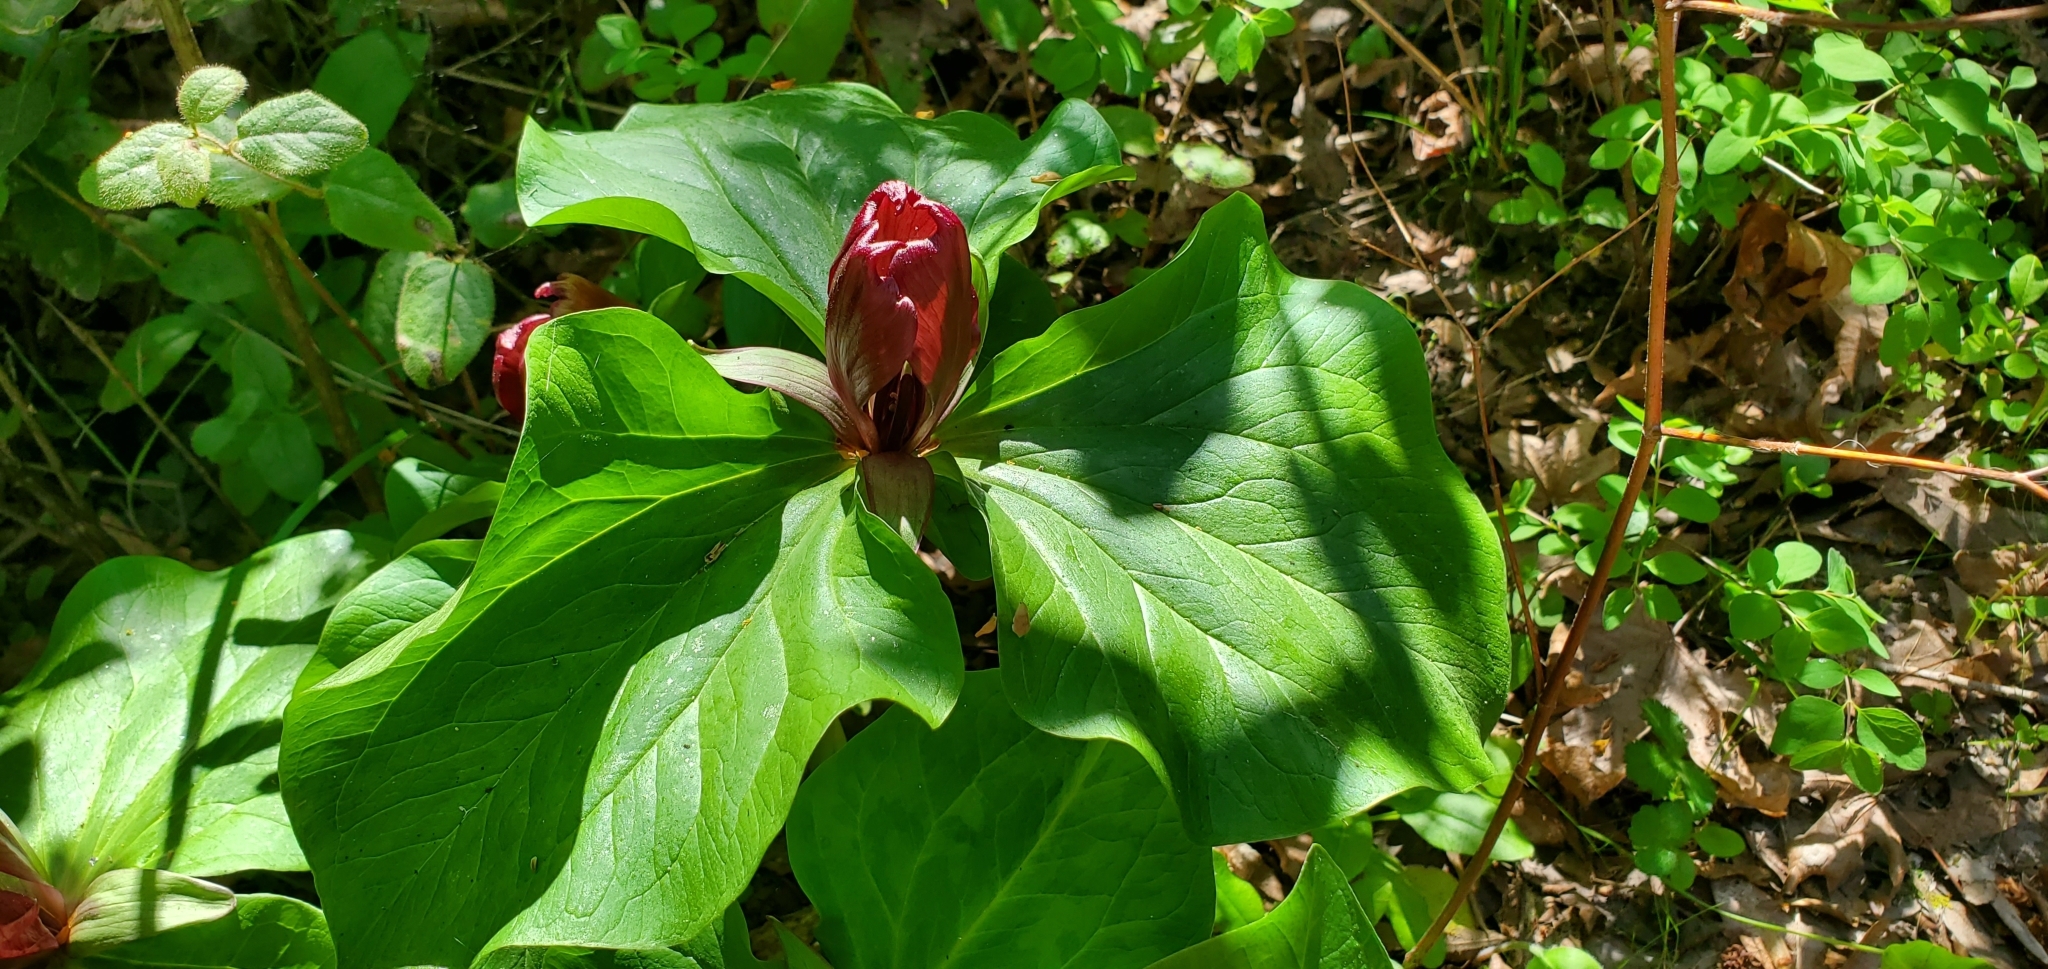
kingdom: Plantae
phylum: Tracheophyta
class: Liliopsida
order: Liliales
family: Melanthiaceae
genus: Trillium
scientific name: Trillium chloropetalum
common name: Giant trillium
